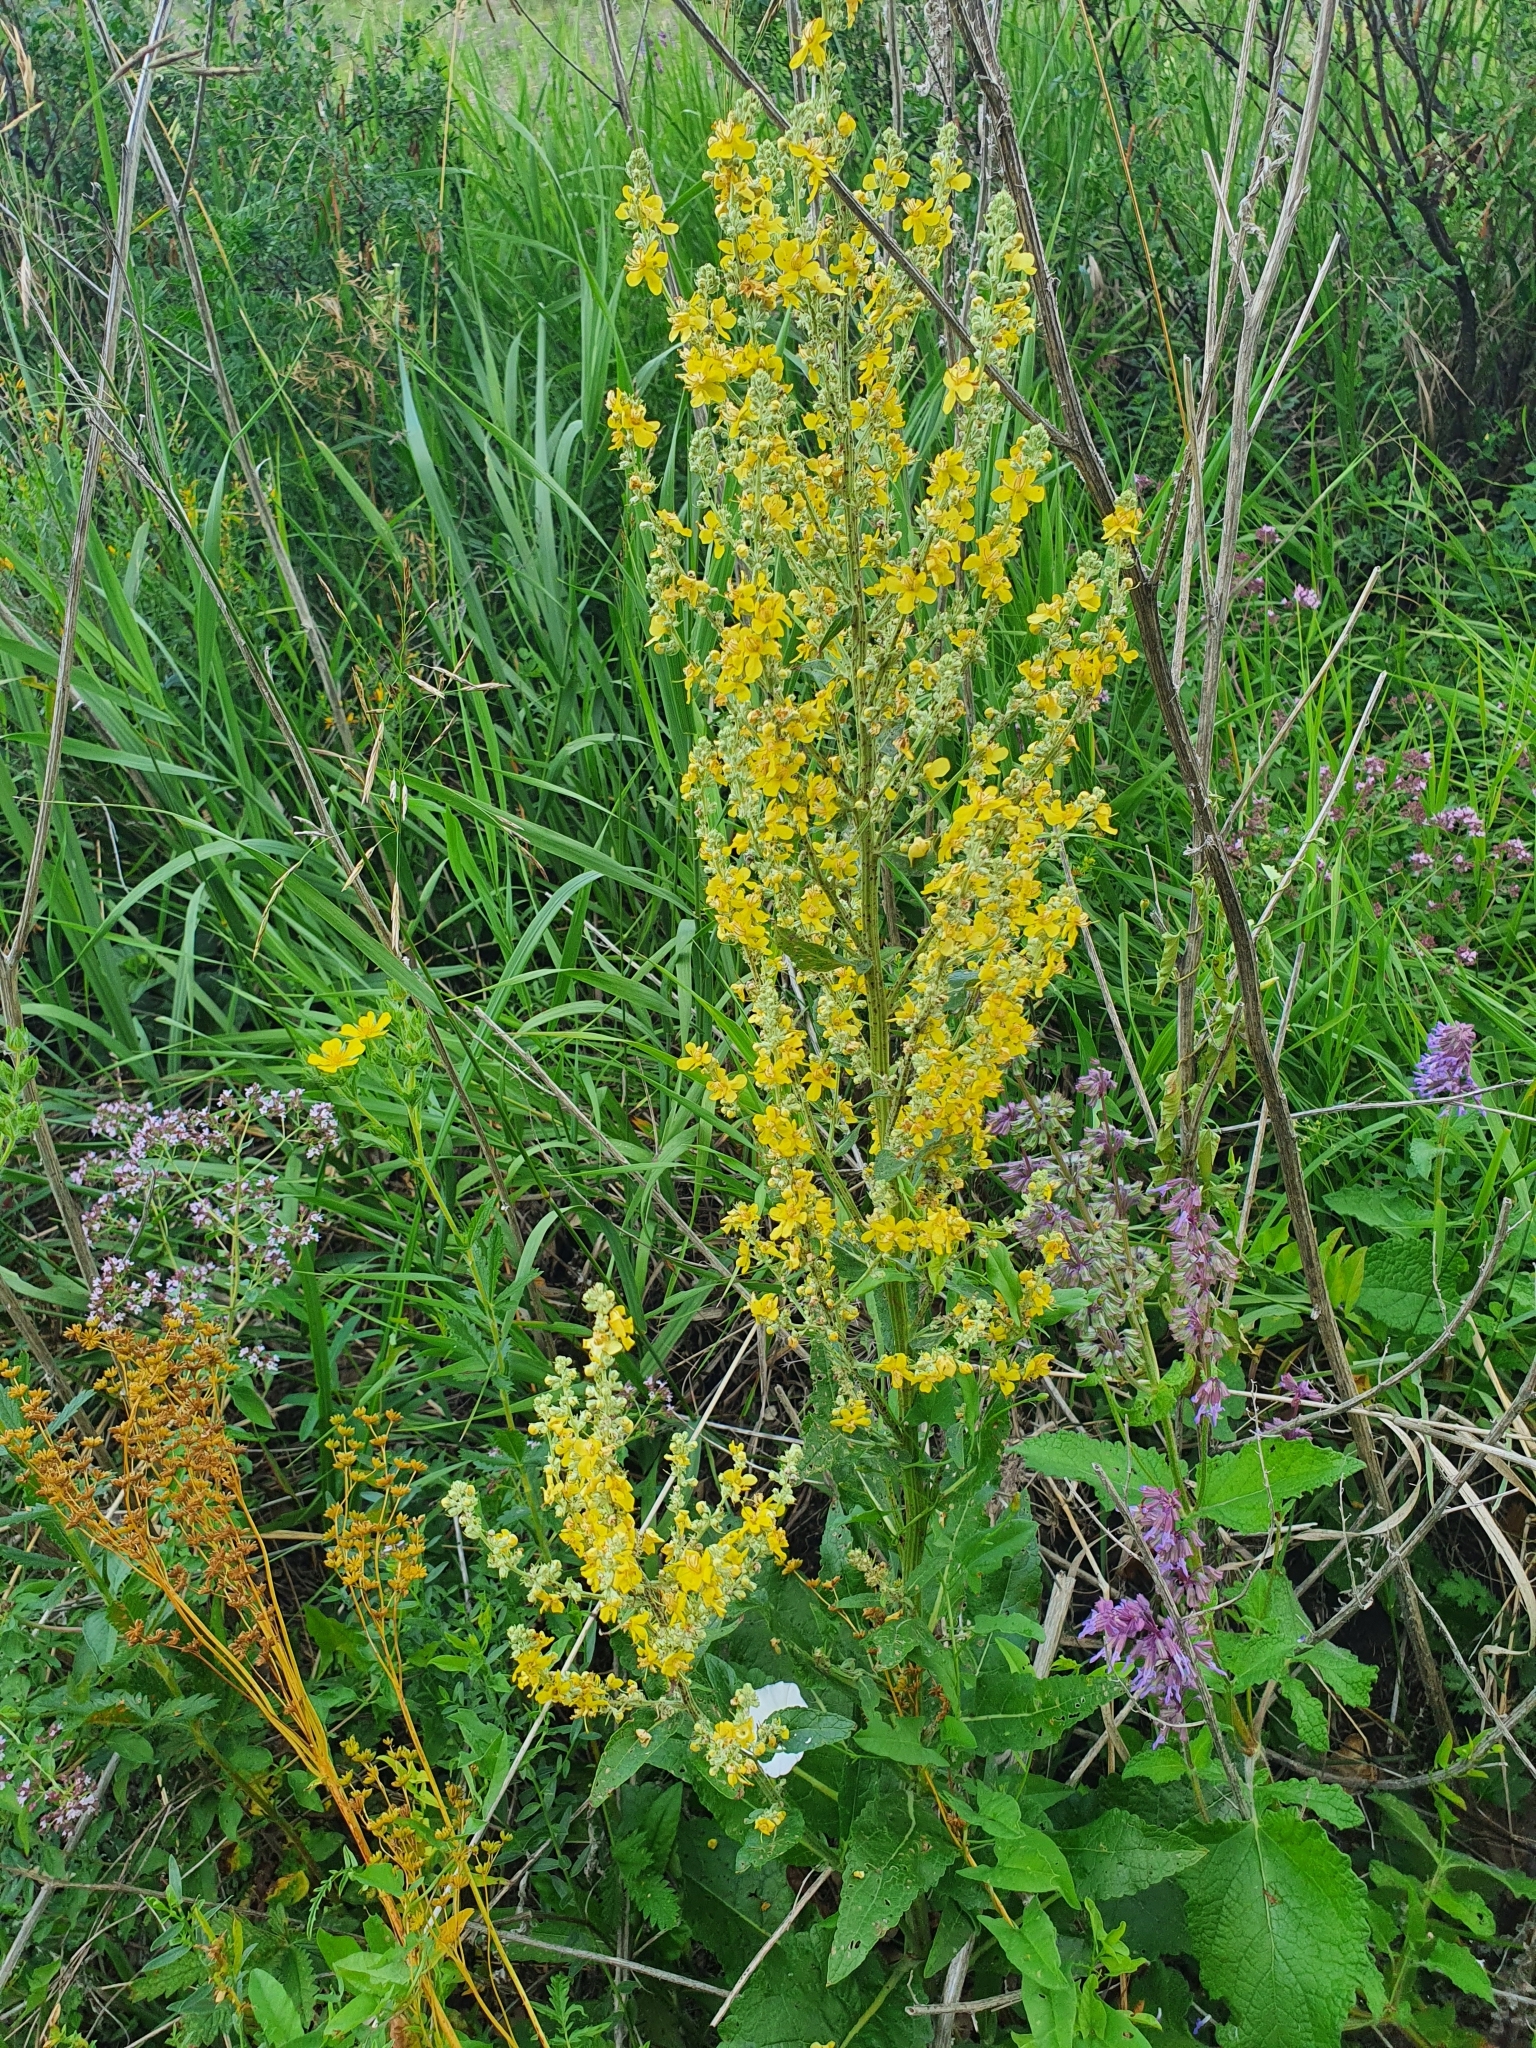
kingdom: Plantae
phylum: Tracheophyta
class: Magnoliopsida
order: Lamiales
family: Scrophulariaceae
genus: Verbascum
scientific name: Verbascum lychnitis
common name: White mullein
